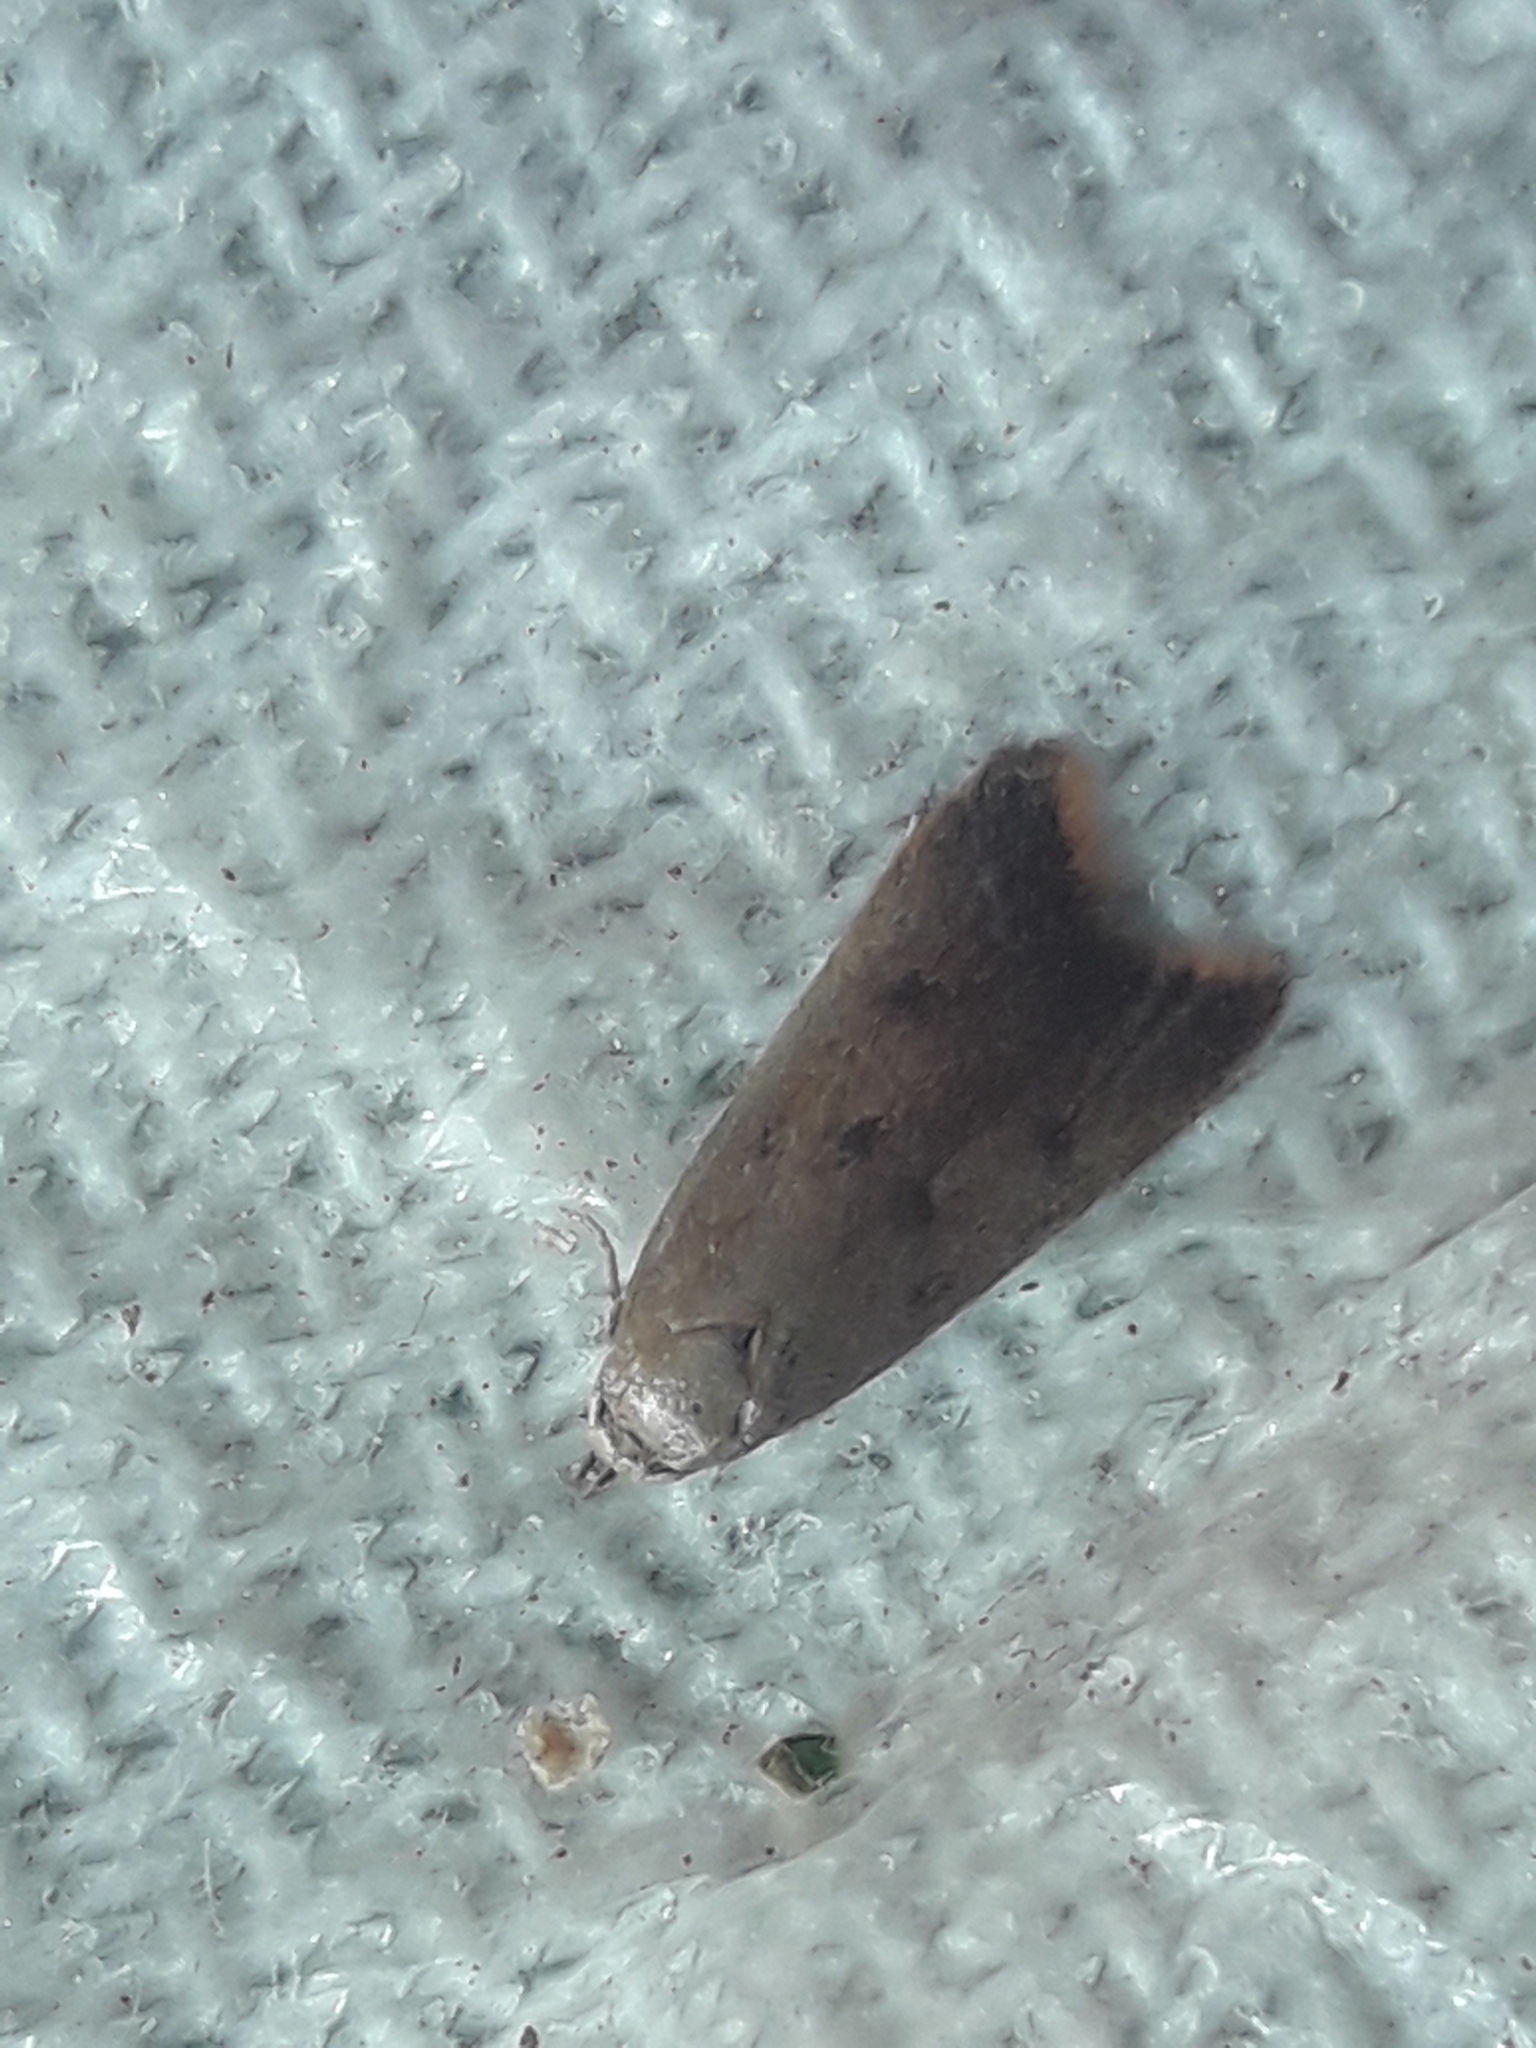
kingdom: Animalia
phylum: Arthropoda
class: Insecta
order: Lepidoptera
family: Oecophoridae
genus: Tachystola
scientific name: Tachystola acroxantha
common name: Ruddy streak
